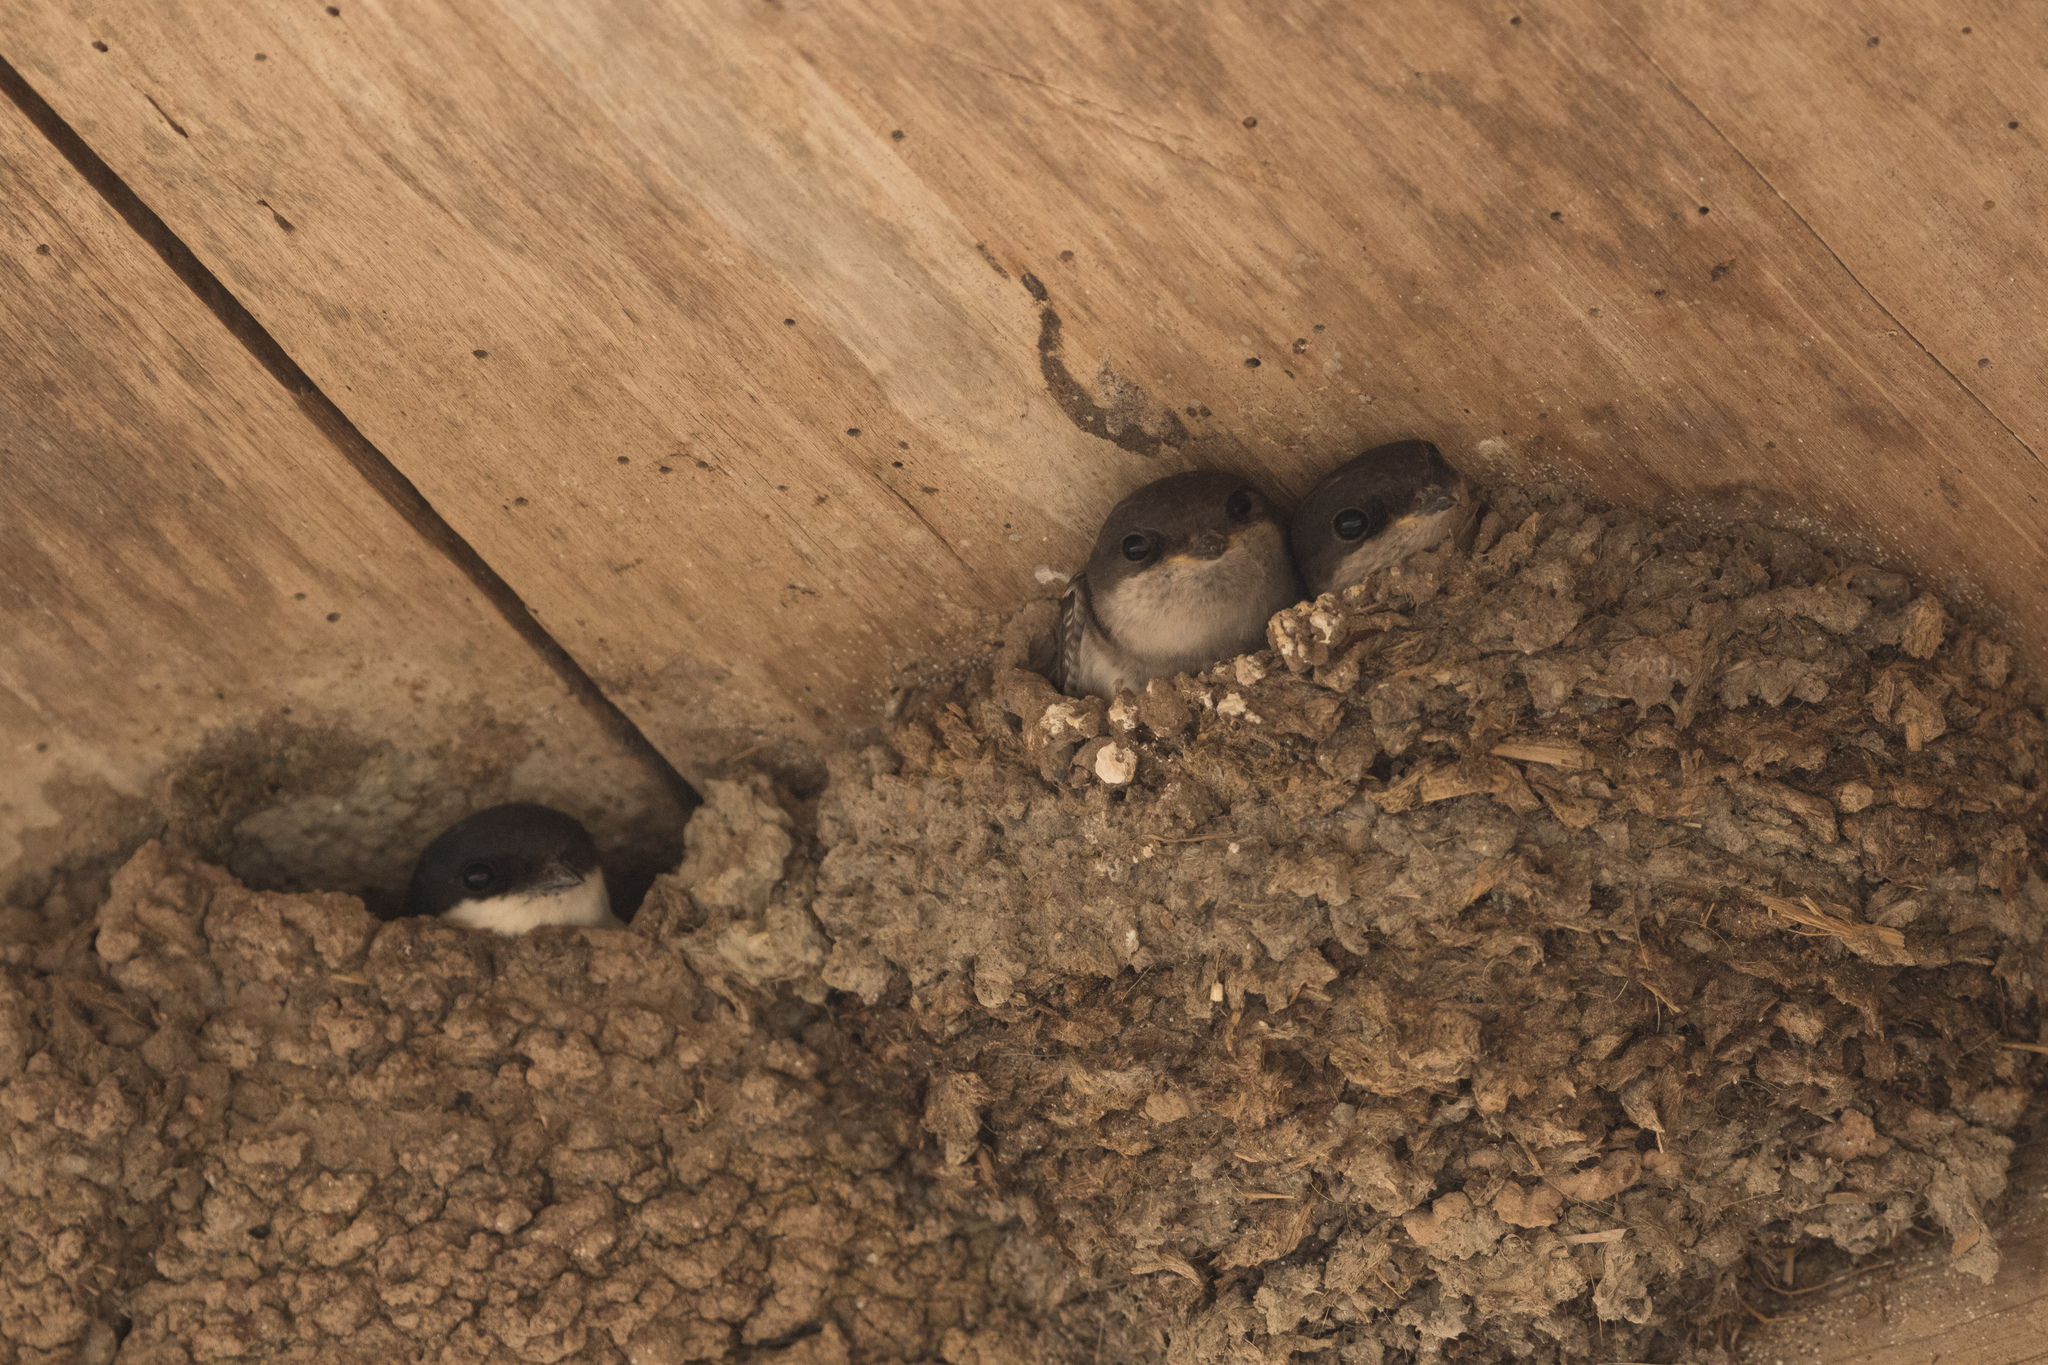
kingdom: Animalia
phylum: Chordata
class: Aves
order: Passeriformes
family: Hirundinidae
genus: Delichon
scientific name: Delichon urbicum
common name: Common house martin
